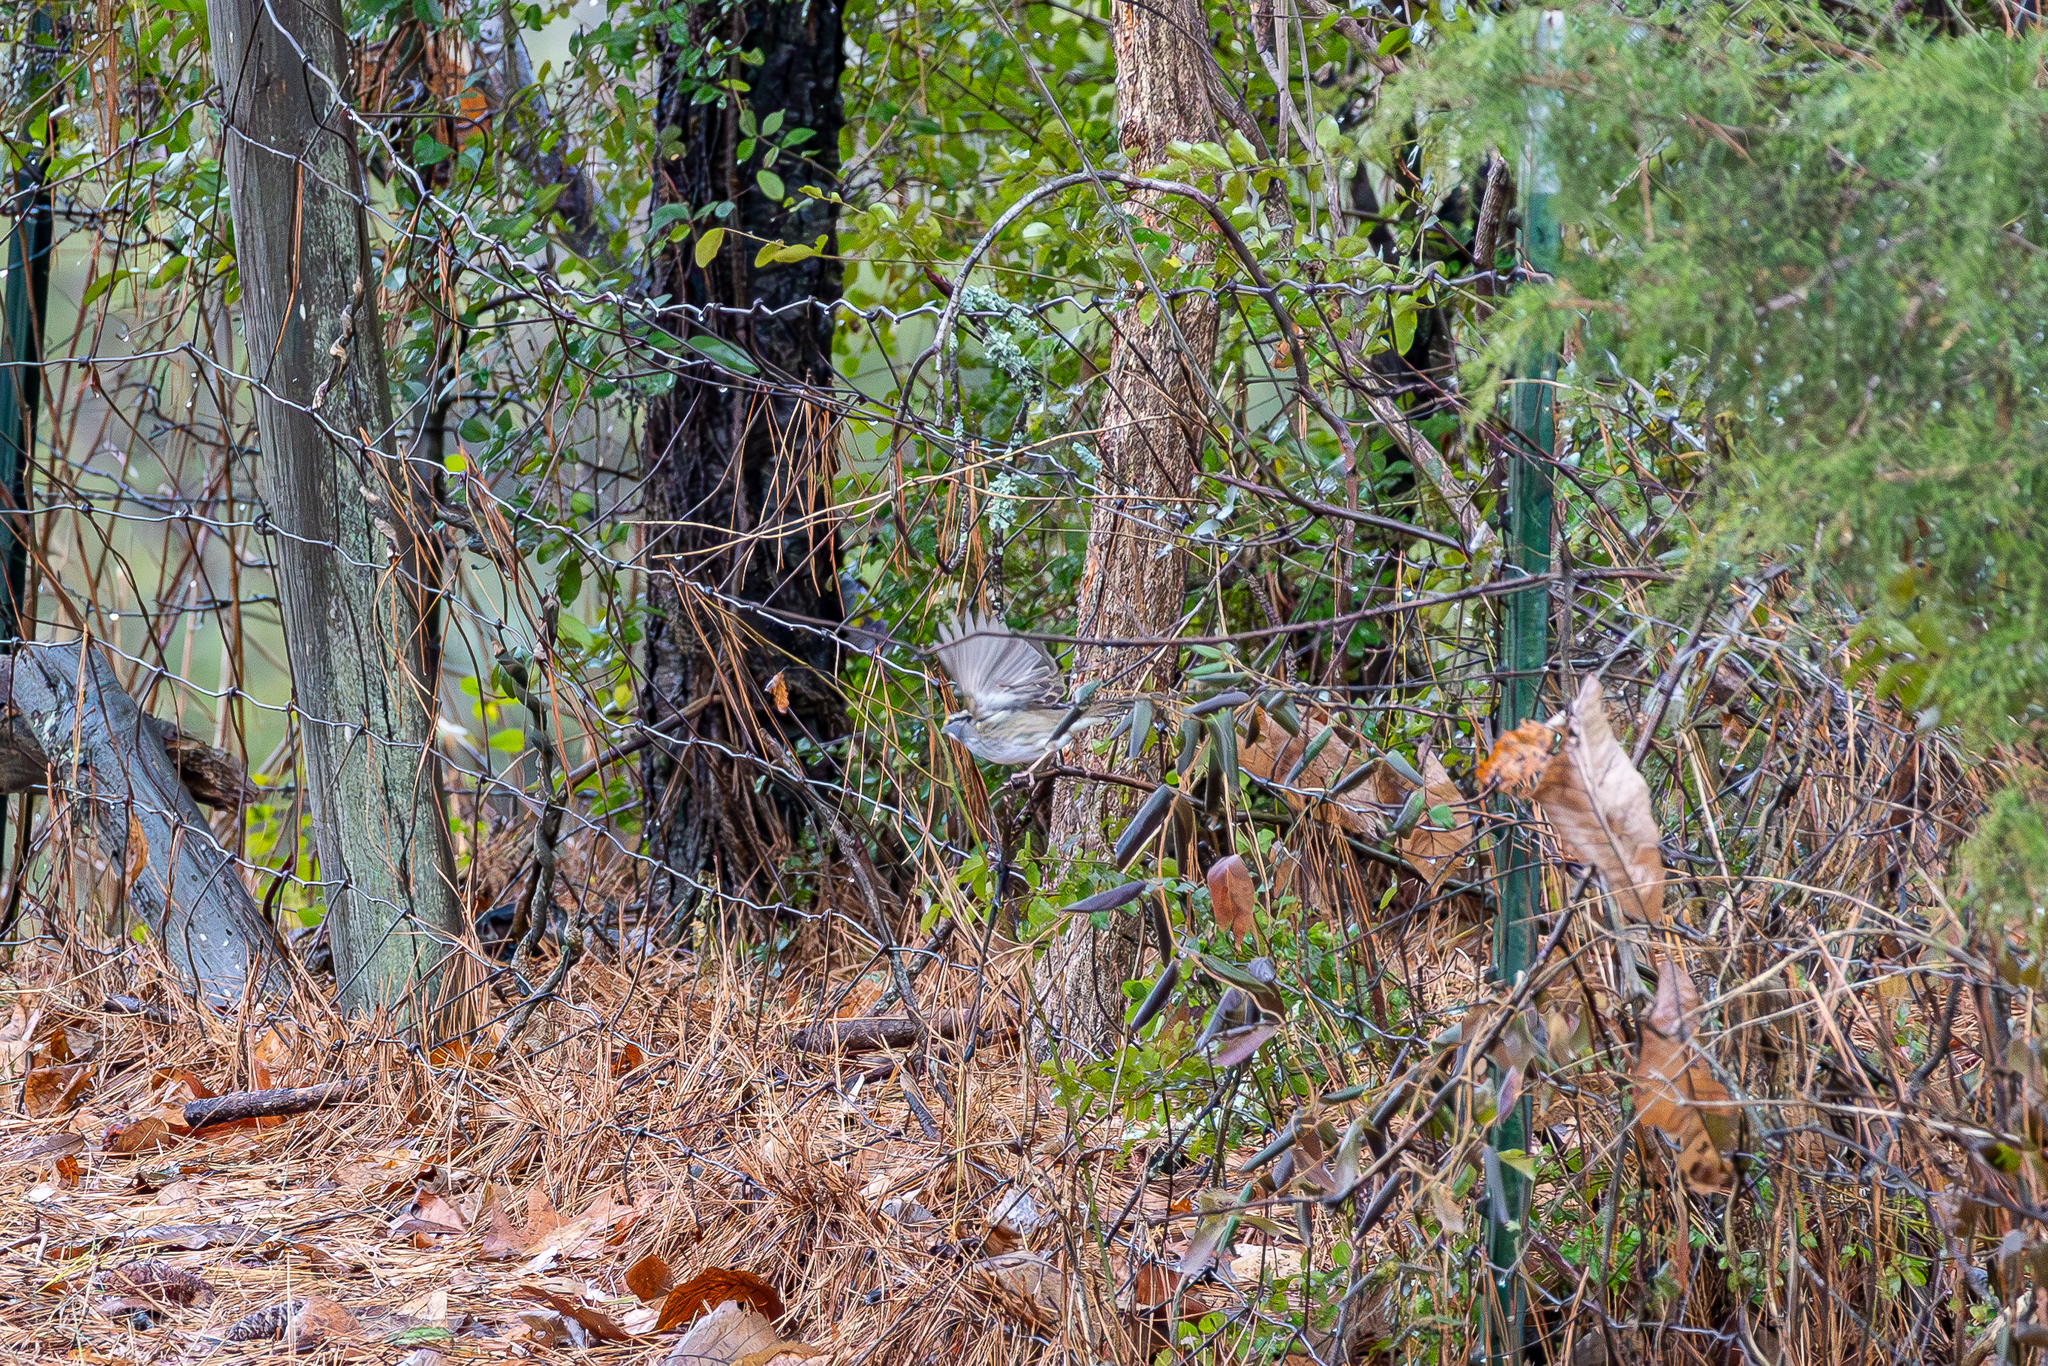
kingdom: Animalia
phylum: Chordata
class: Aves
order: Passeriformes
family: Passerellidae
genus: Zonotrichia
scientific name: Zonotrichia albicollis
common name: White-throated sparrow
